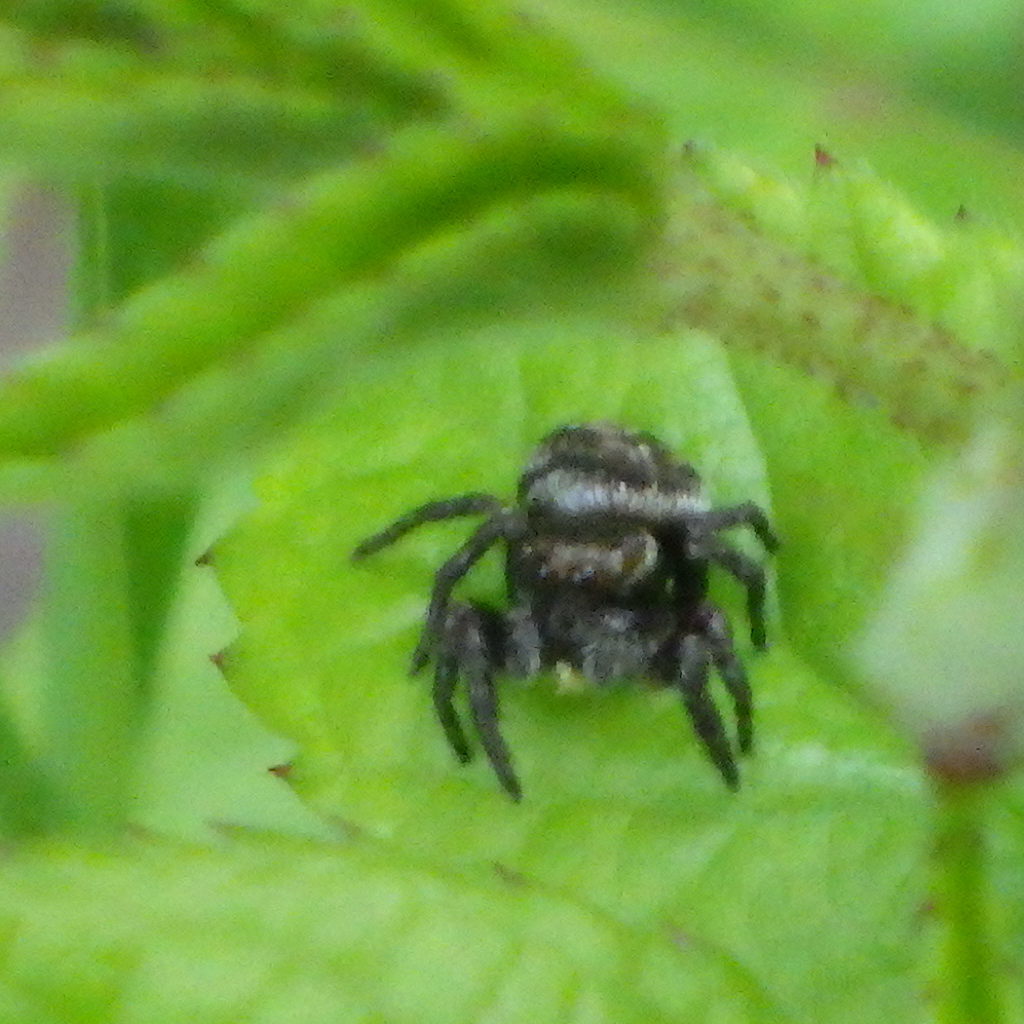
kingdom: Animalia
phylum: Arthropoda
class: Arachnida
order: Araneae
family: Salticidae
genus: Evarcha
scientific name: Evarcha hoyi
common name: Hoy's jumping spider
